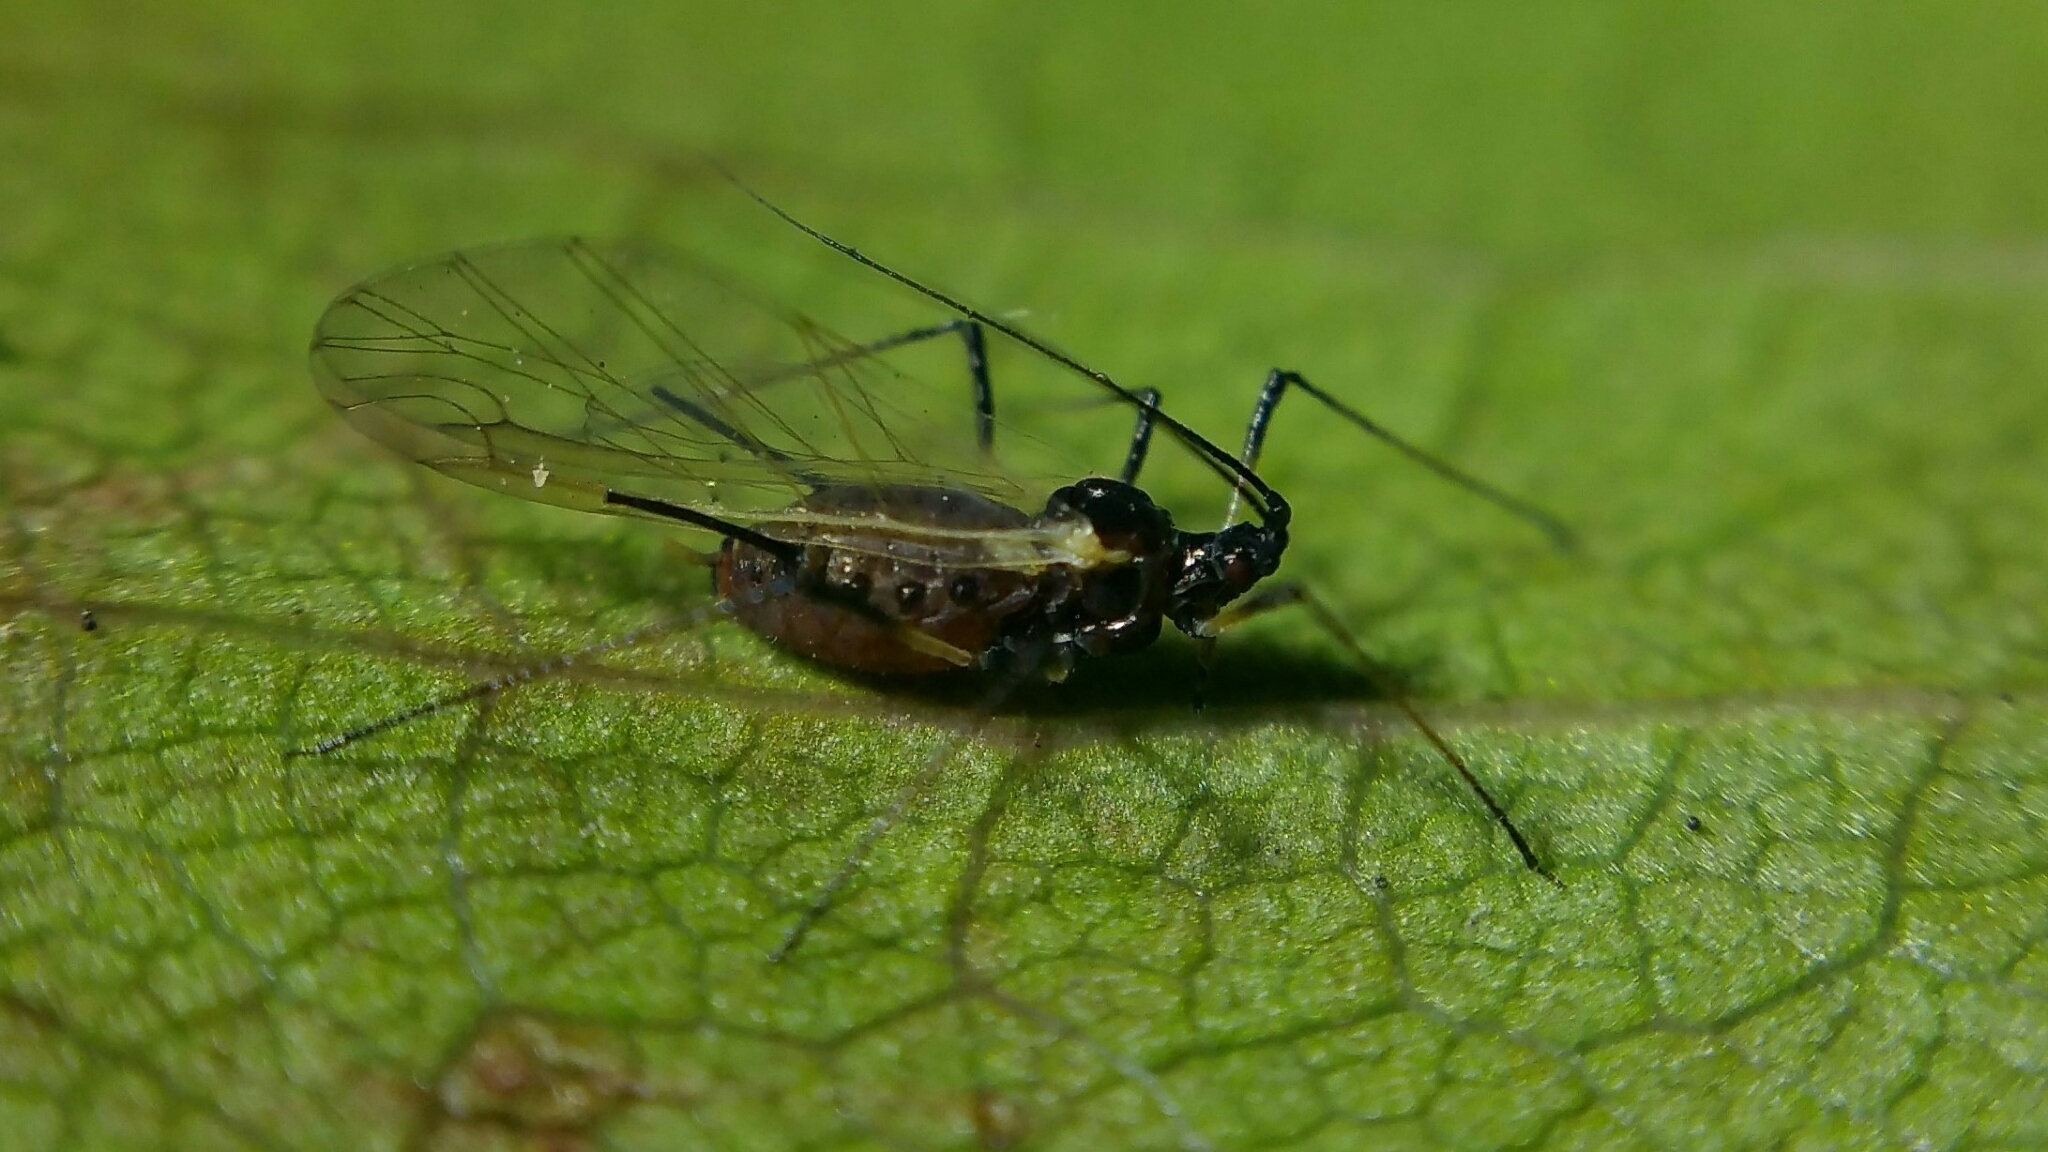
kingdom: Animalia
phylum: Arthropoda
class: Insecta
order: Hemiptera
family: Aphididae
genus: Macrosiphum
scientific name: Macrosiphum rosae
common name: Rose aphid
